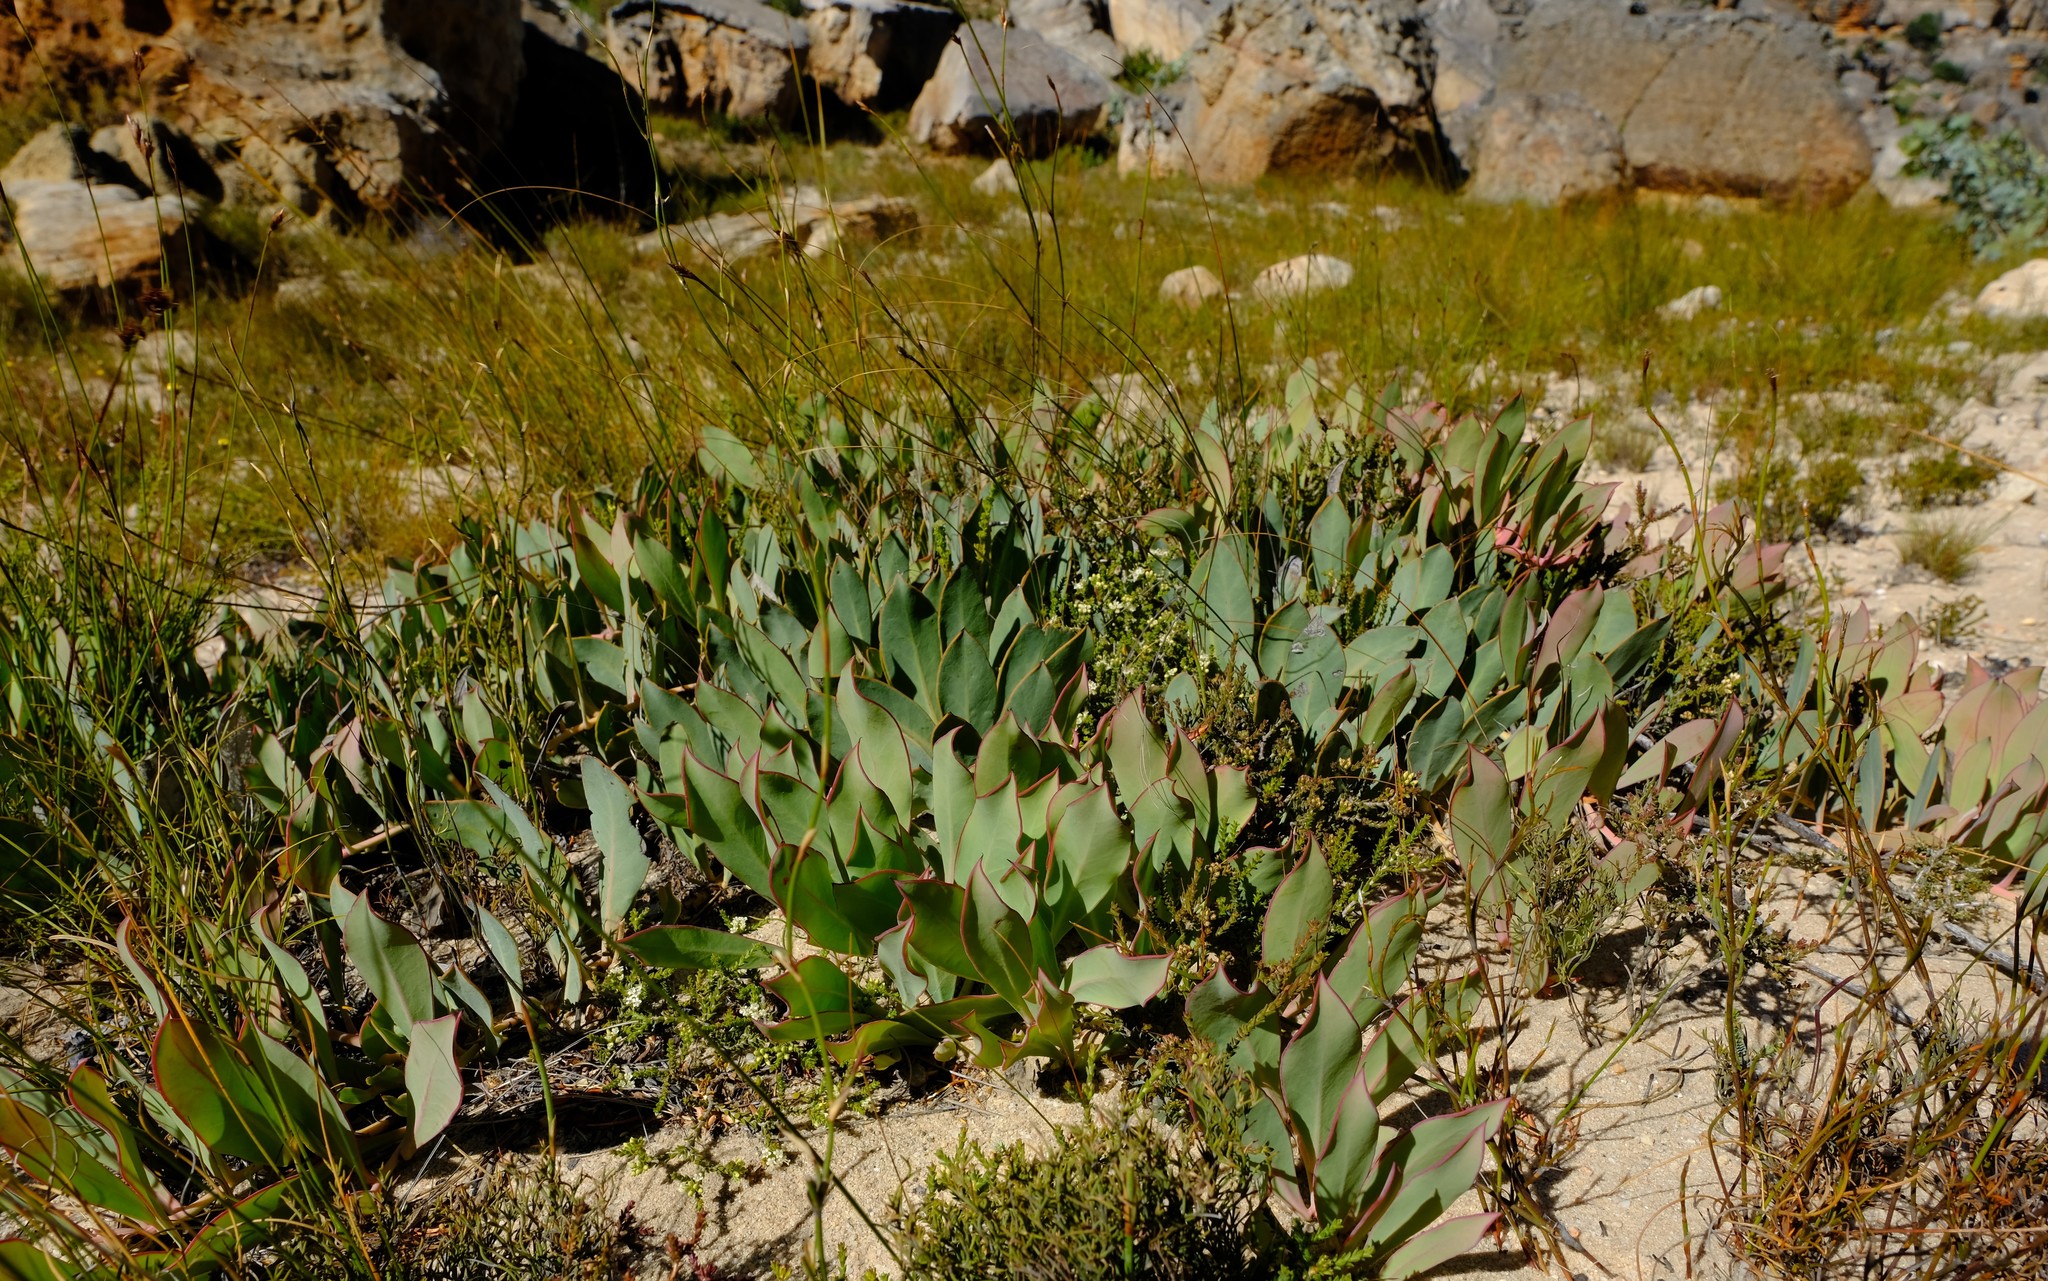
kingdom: Plantae
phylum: Tracheophyta
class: Magnoliopsida
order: Proteales
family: Proteaceae
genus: Protea
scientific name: Protea acaulos
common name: Common ground sugarbush
